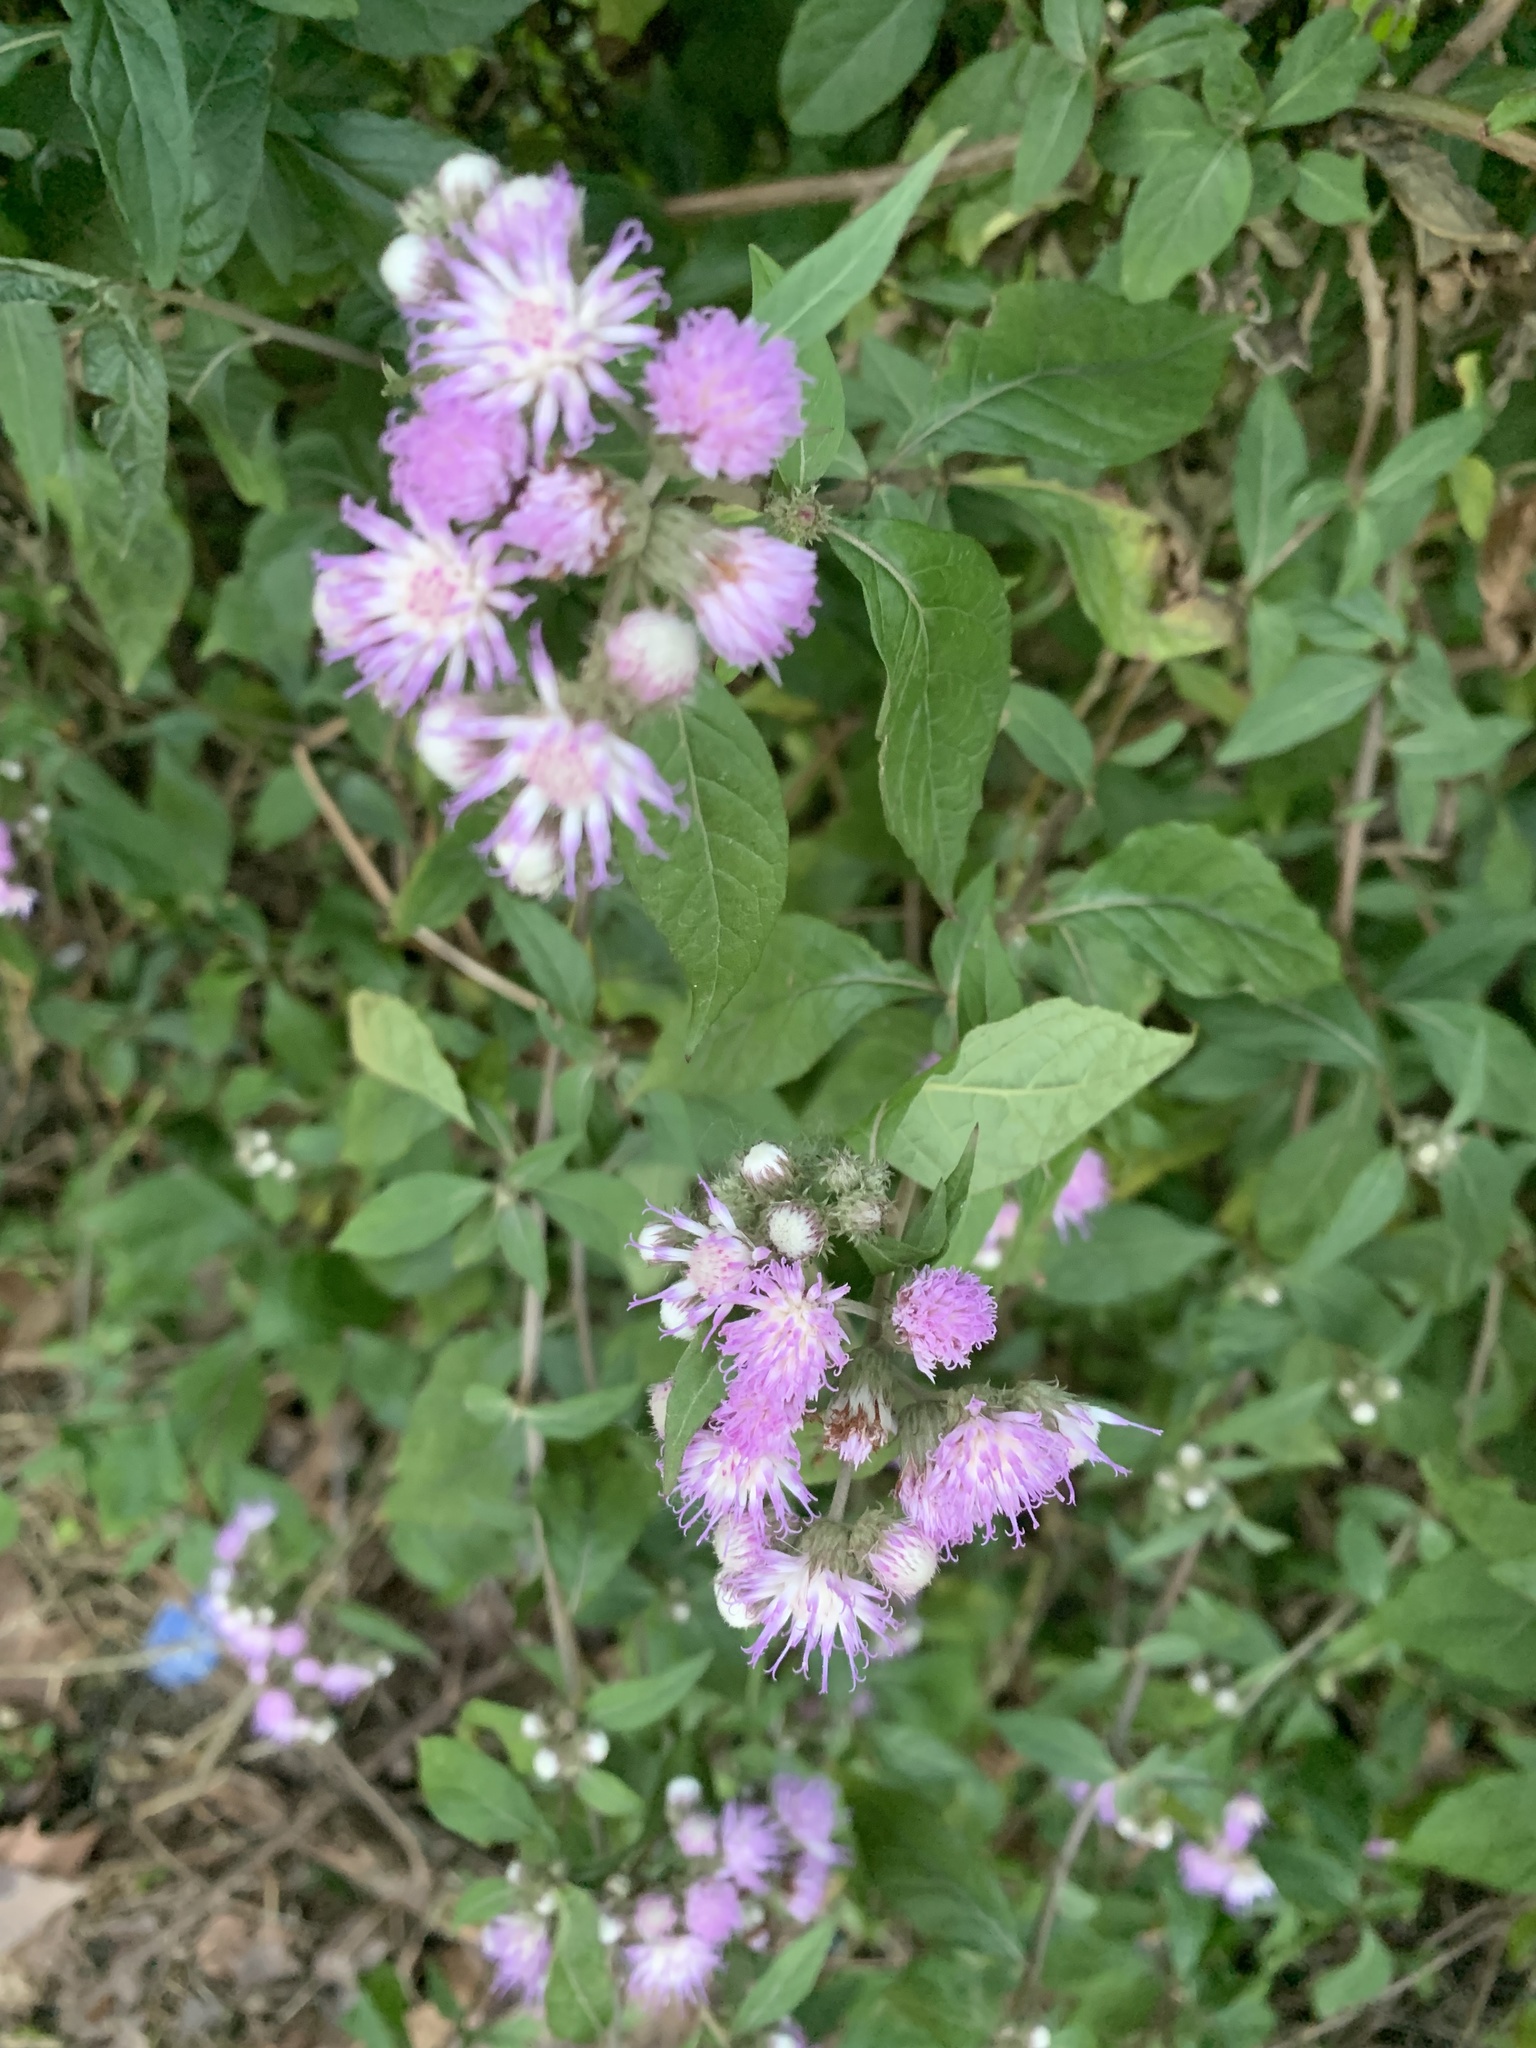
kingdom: Plantae
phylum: Tracheophyta
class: Magnoliopsida
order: Asterales
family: Asteraceae
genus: Cyrtocymura
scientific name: Cyrtocymura scorpioides
